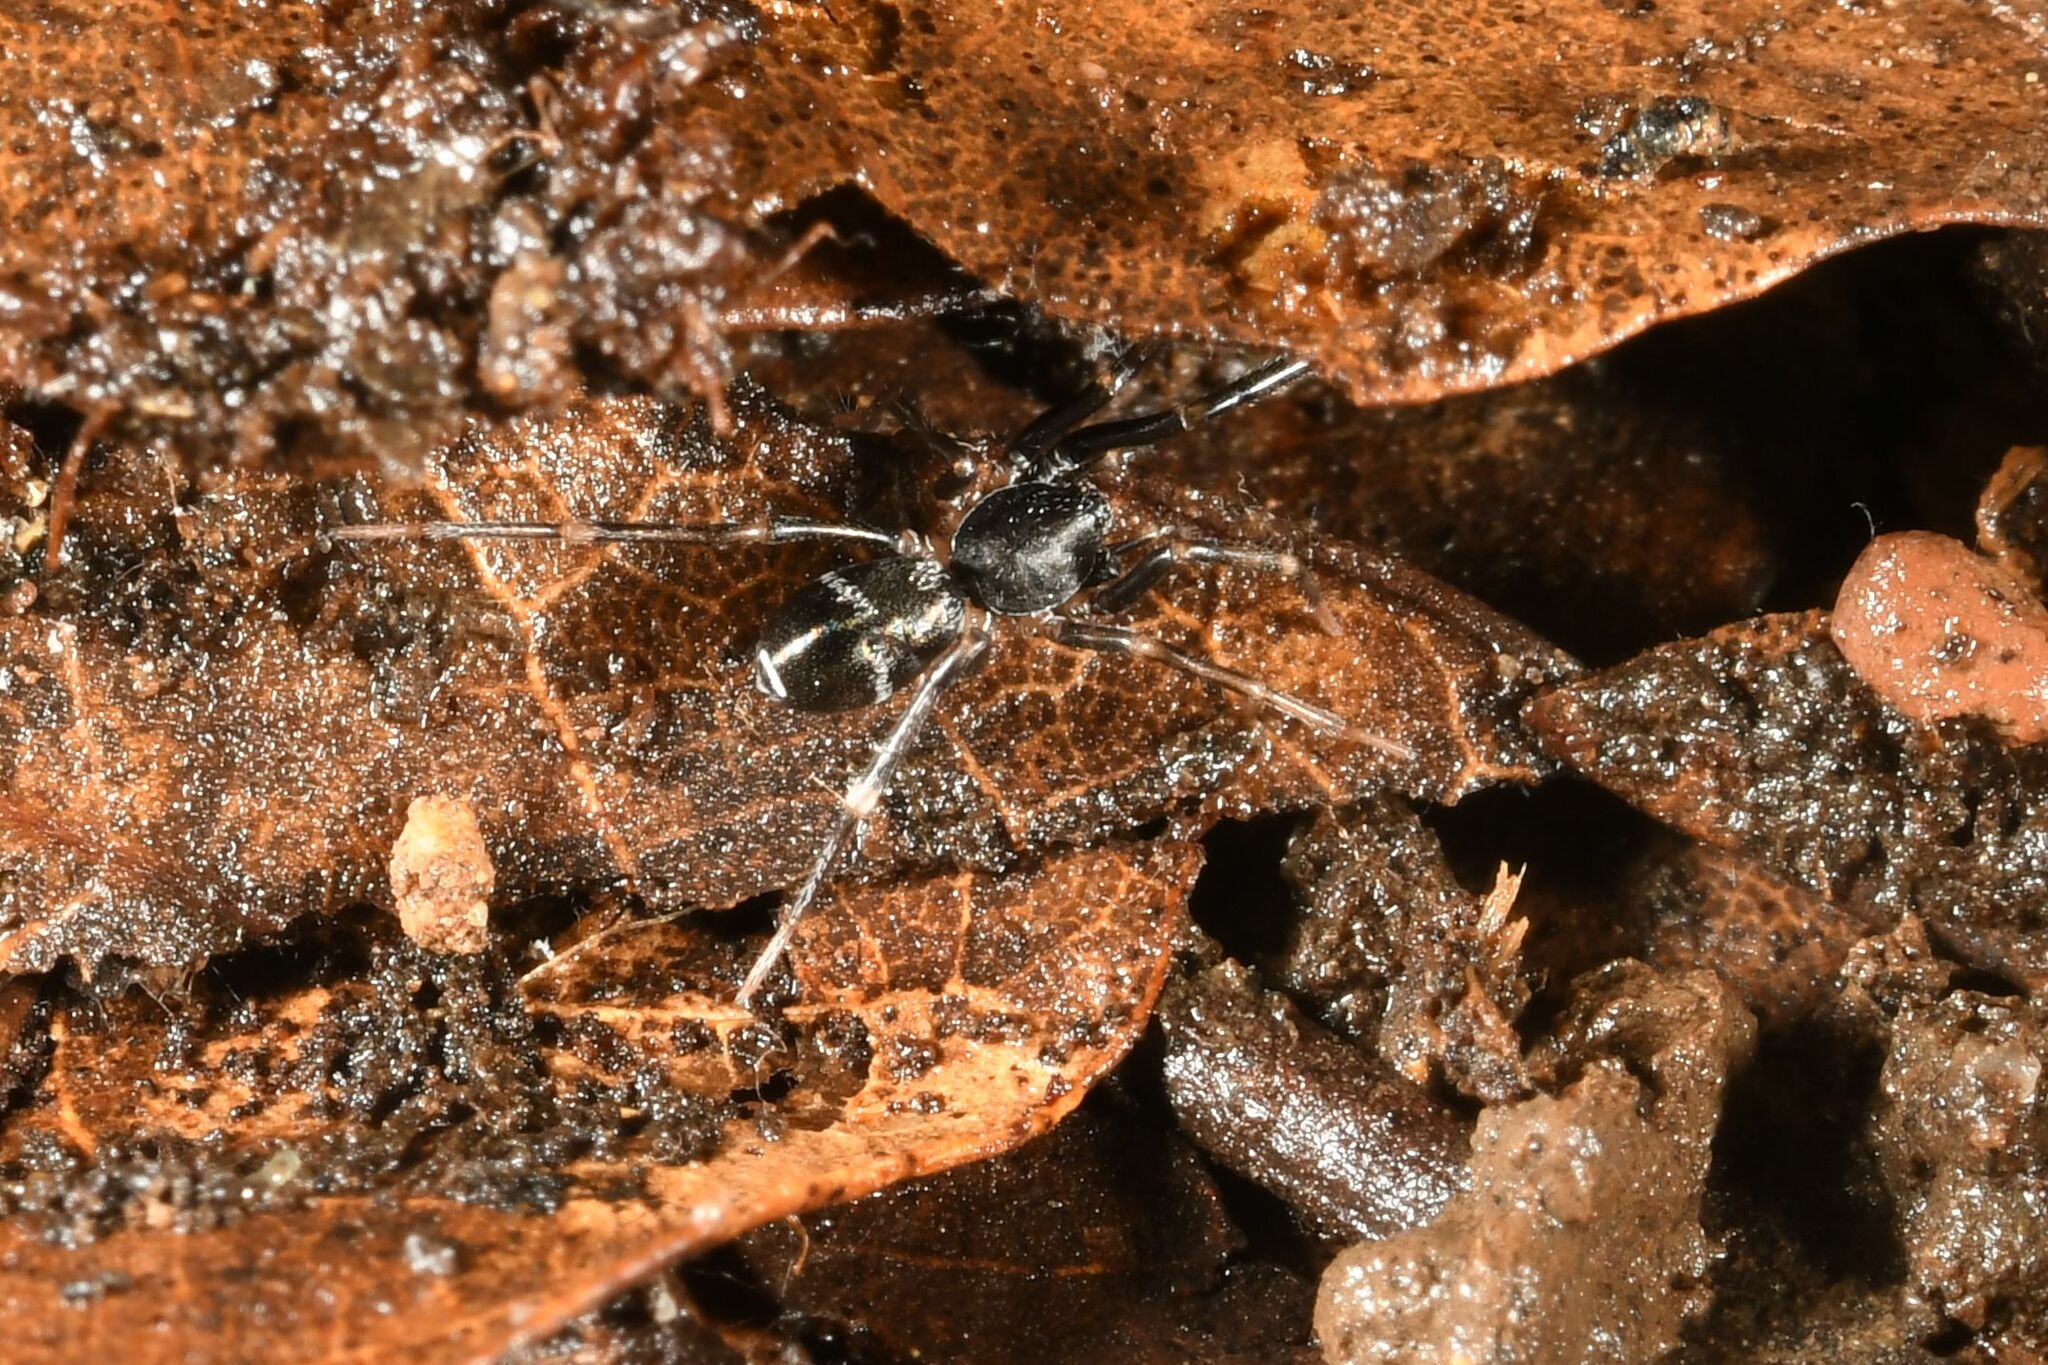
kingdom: Animalia
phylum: Arthropoda
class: Arachnida
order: Araneae
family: Phrurolithidae
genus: Liophrurillus
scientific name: Liophrurillus flavitarsis
